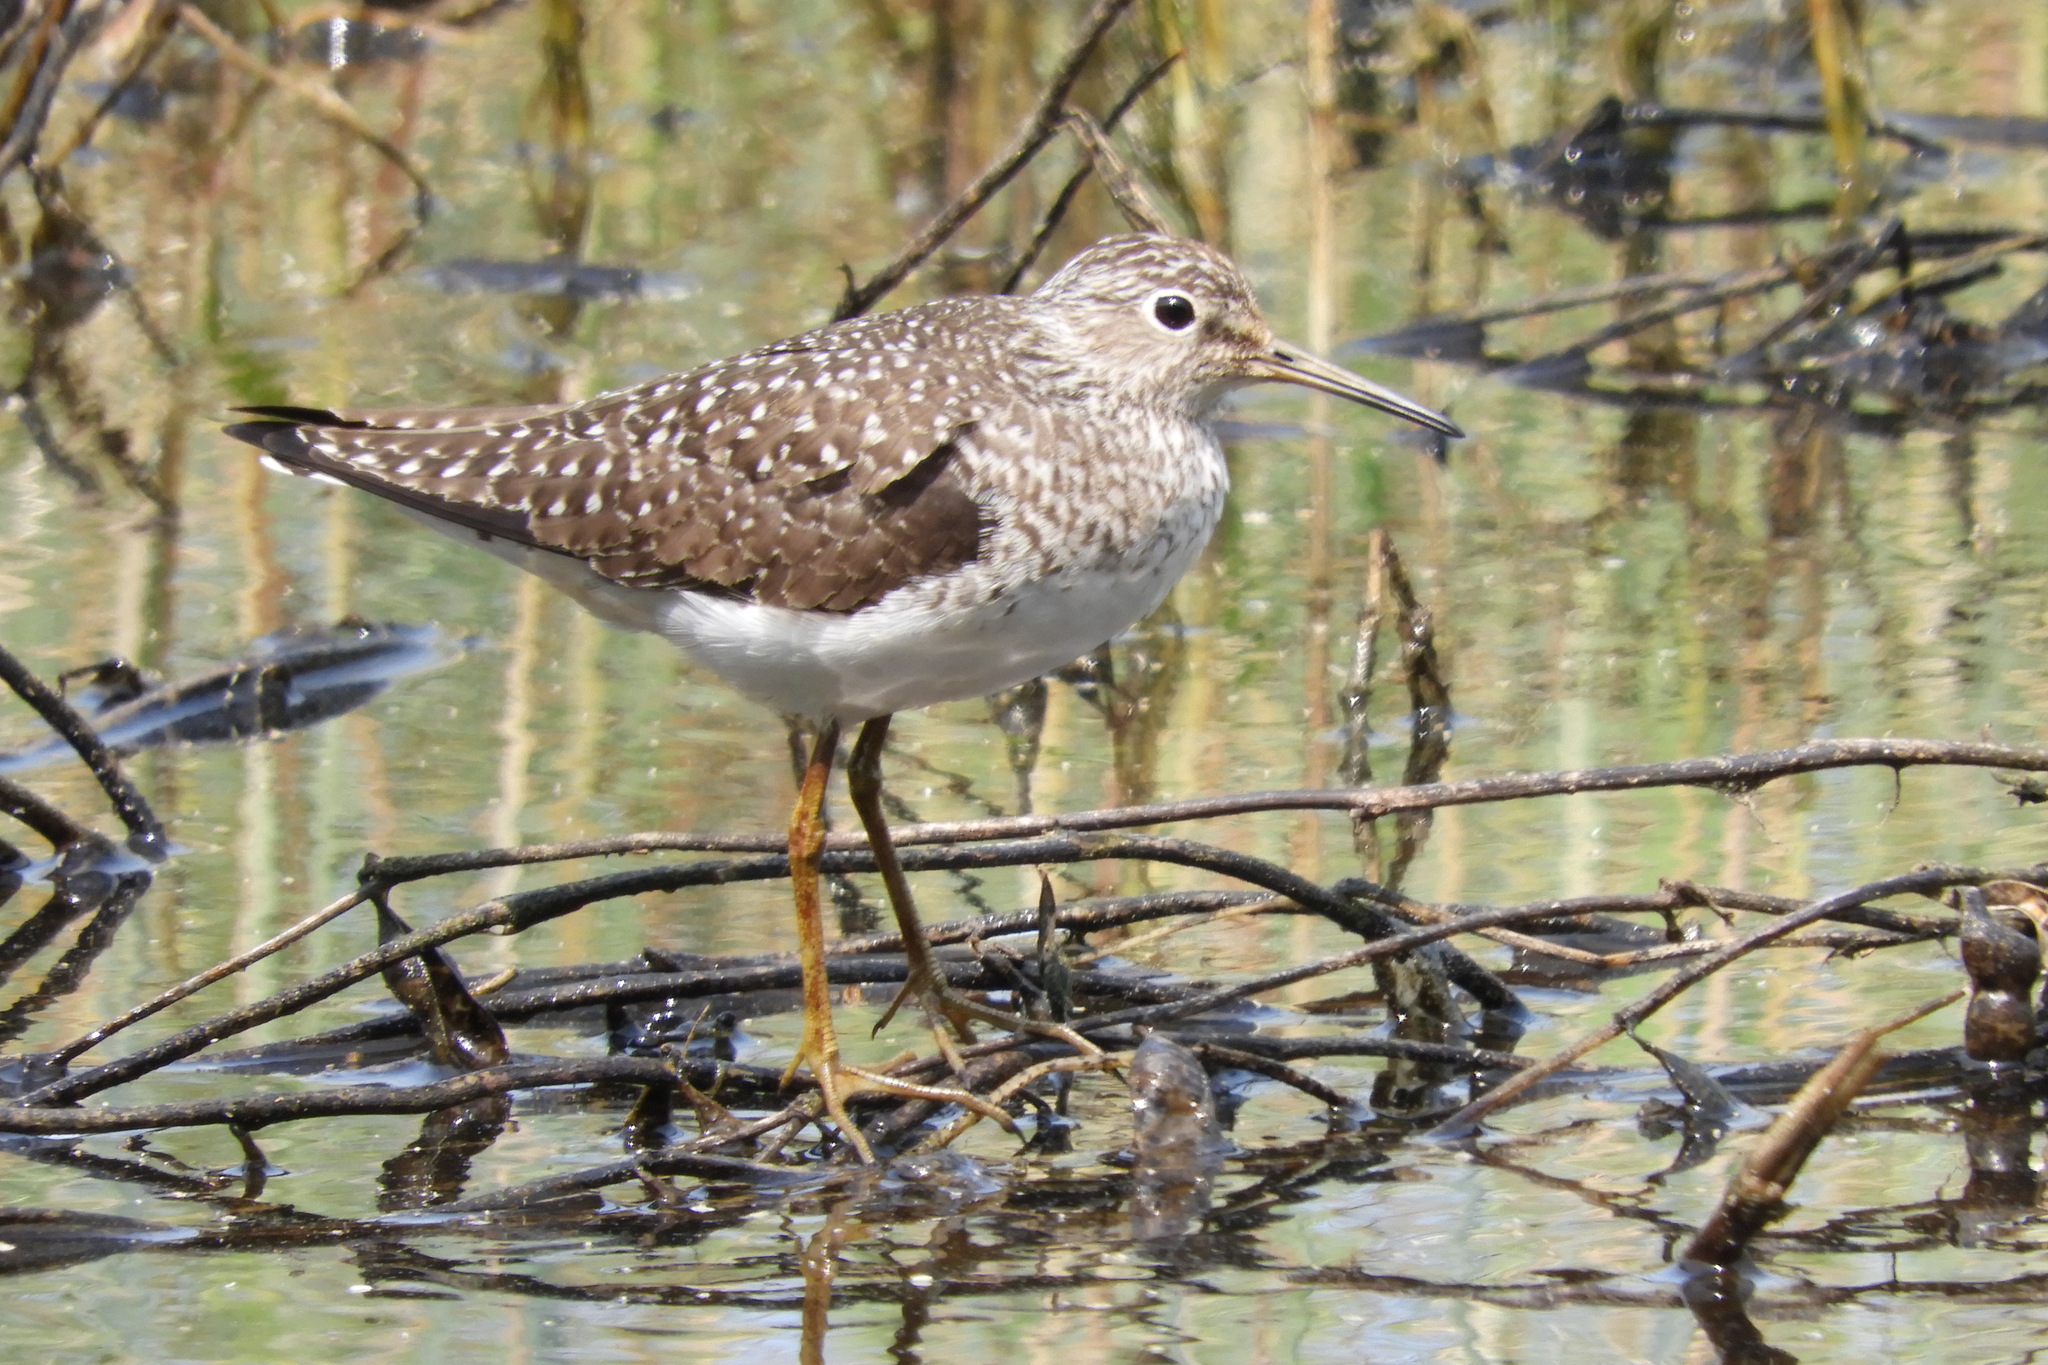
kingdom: Animalia
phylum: Chordata
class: Aves
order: Charadriiformes
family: Scolopacidae
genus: Tringa
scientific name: Tringa solitaria
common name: Solitary sandpiper
